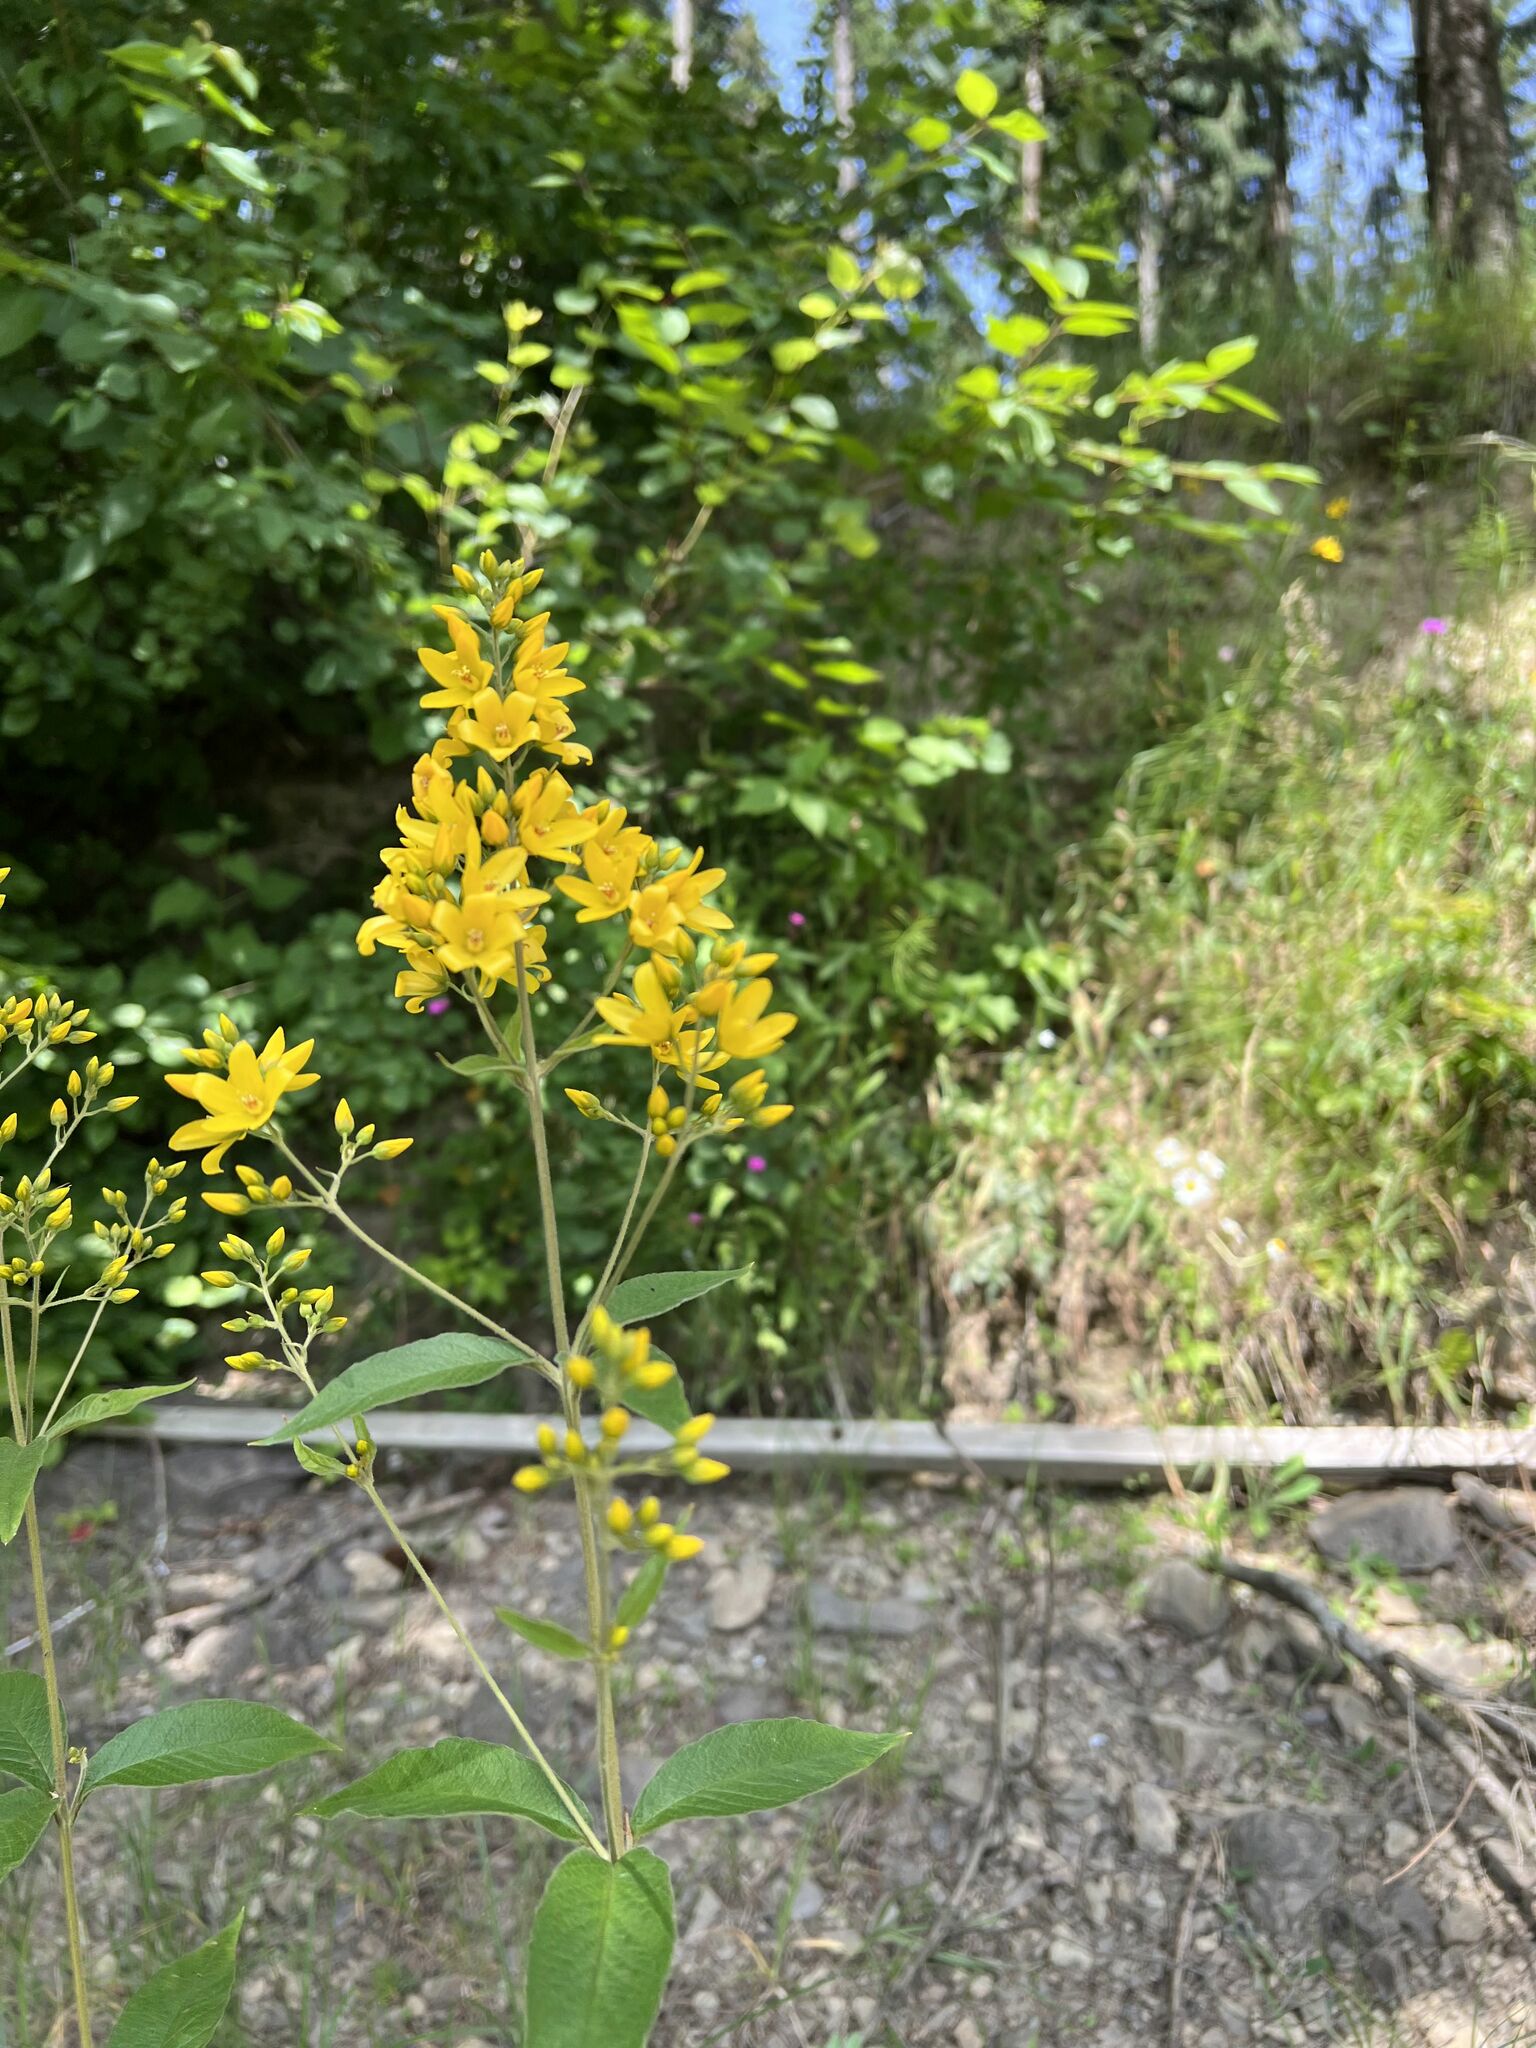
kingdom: Plantae
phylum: Tracheophyta
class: Magnoliopsida
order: Ericales
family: Primulaceae
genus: Lysimachia
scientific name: Lysimachia vulgaris
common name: Yellow loosestrife
